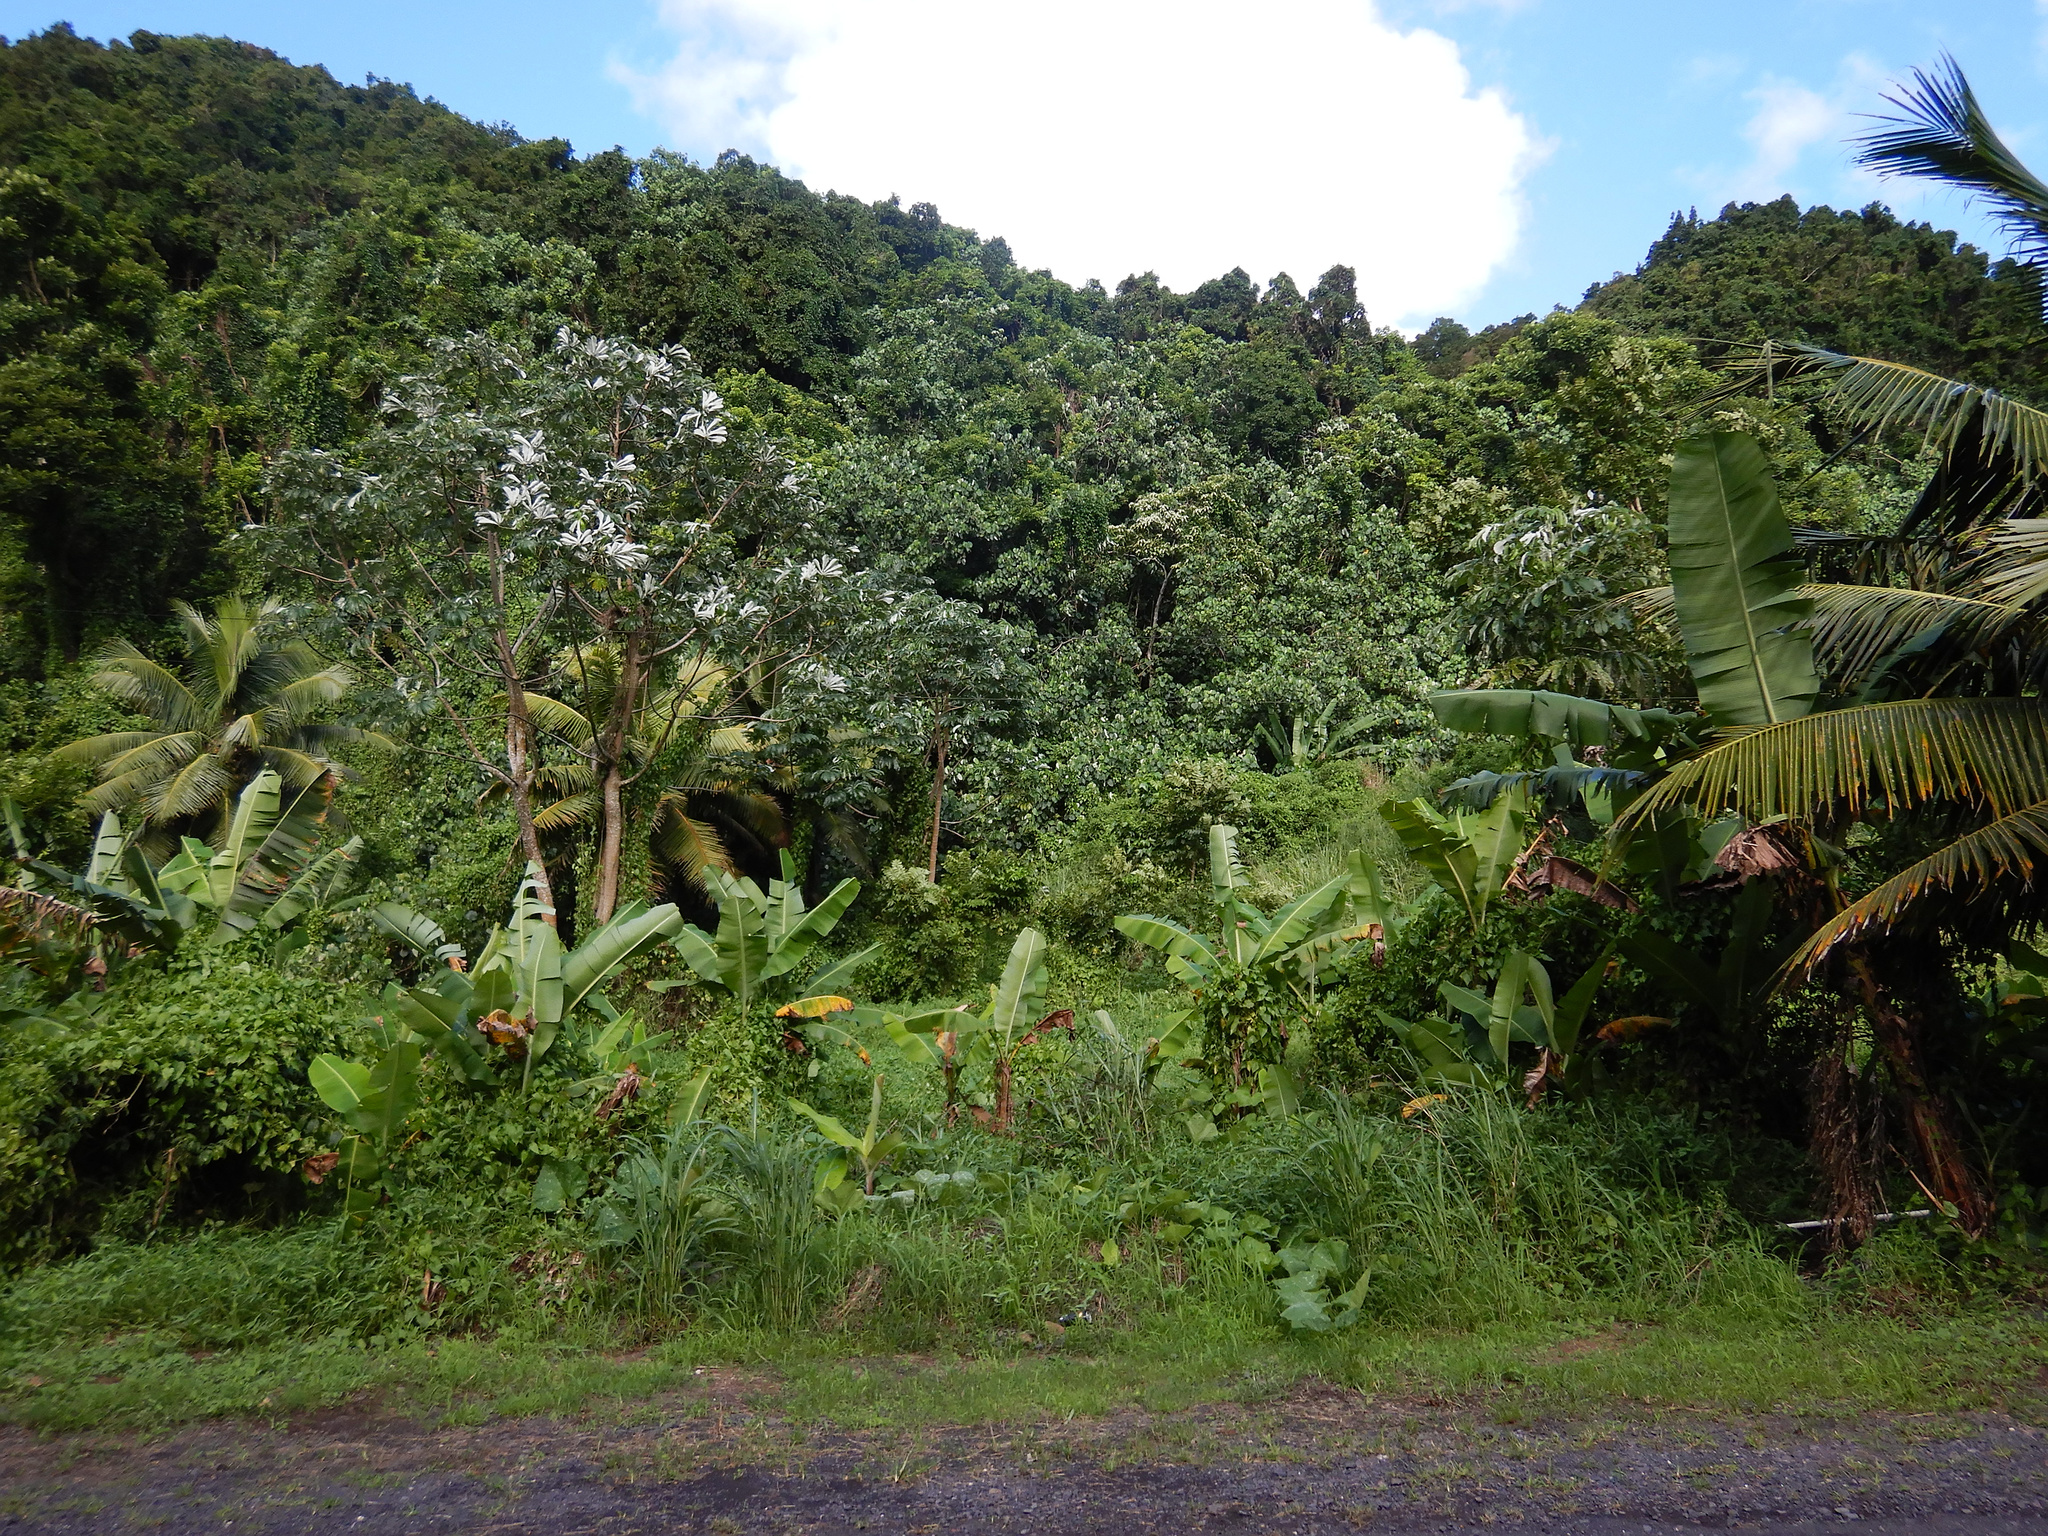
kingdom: Plantae
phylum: Tracheophyta
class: Magnoliopsida
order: Rosales
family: Urticaceae
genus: Cecropia
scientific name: Cecropia pachystachya
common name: Ambay pumpwood
